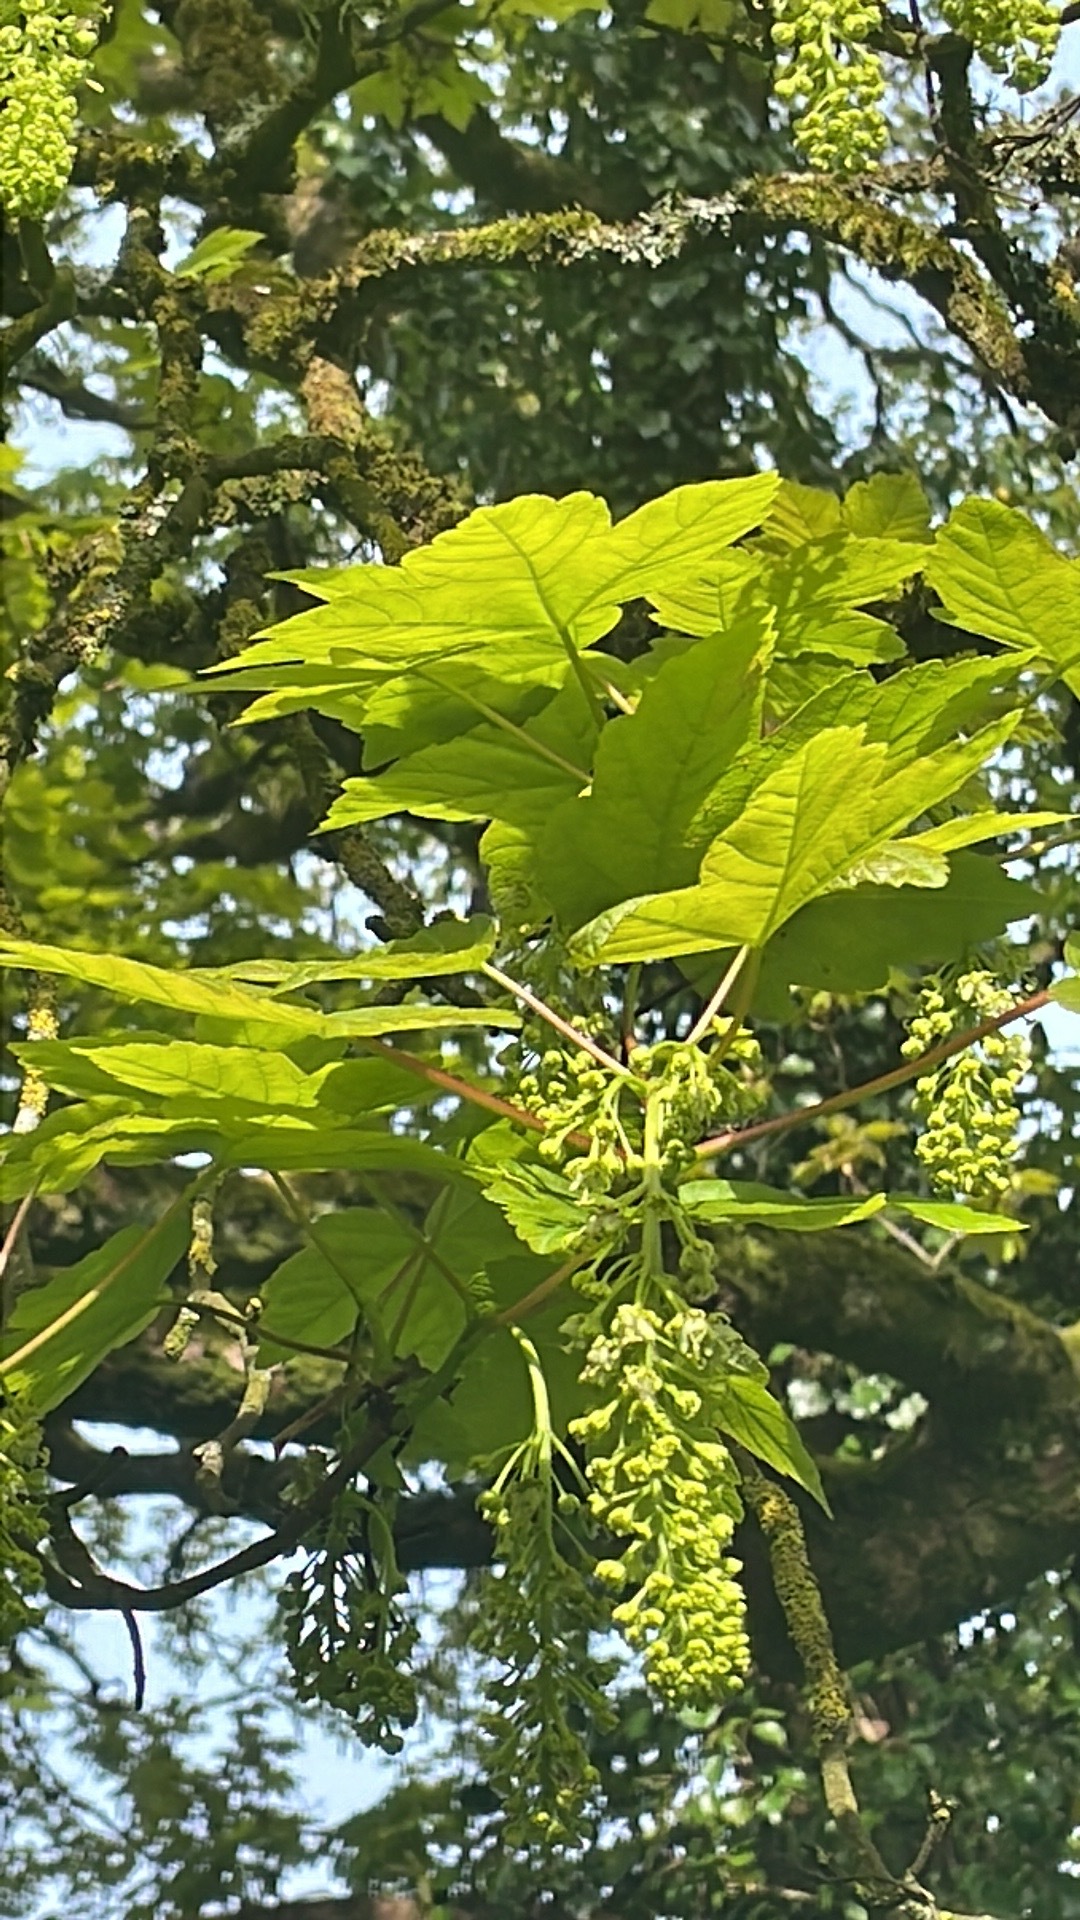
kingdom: Plantae
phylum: Tracheophyta
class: Magnoliopsida
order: Sapindales
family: Sapindaceae
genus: Acer
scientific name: Acer pseudoplatanus
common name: Sycamore
